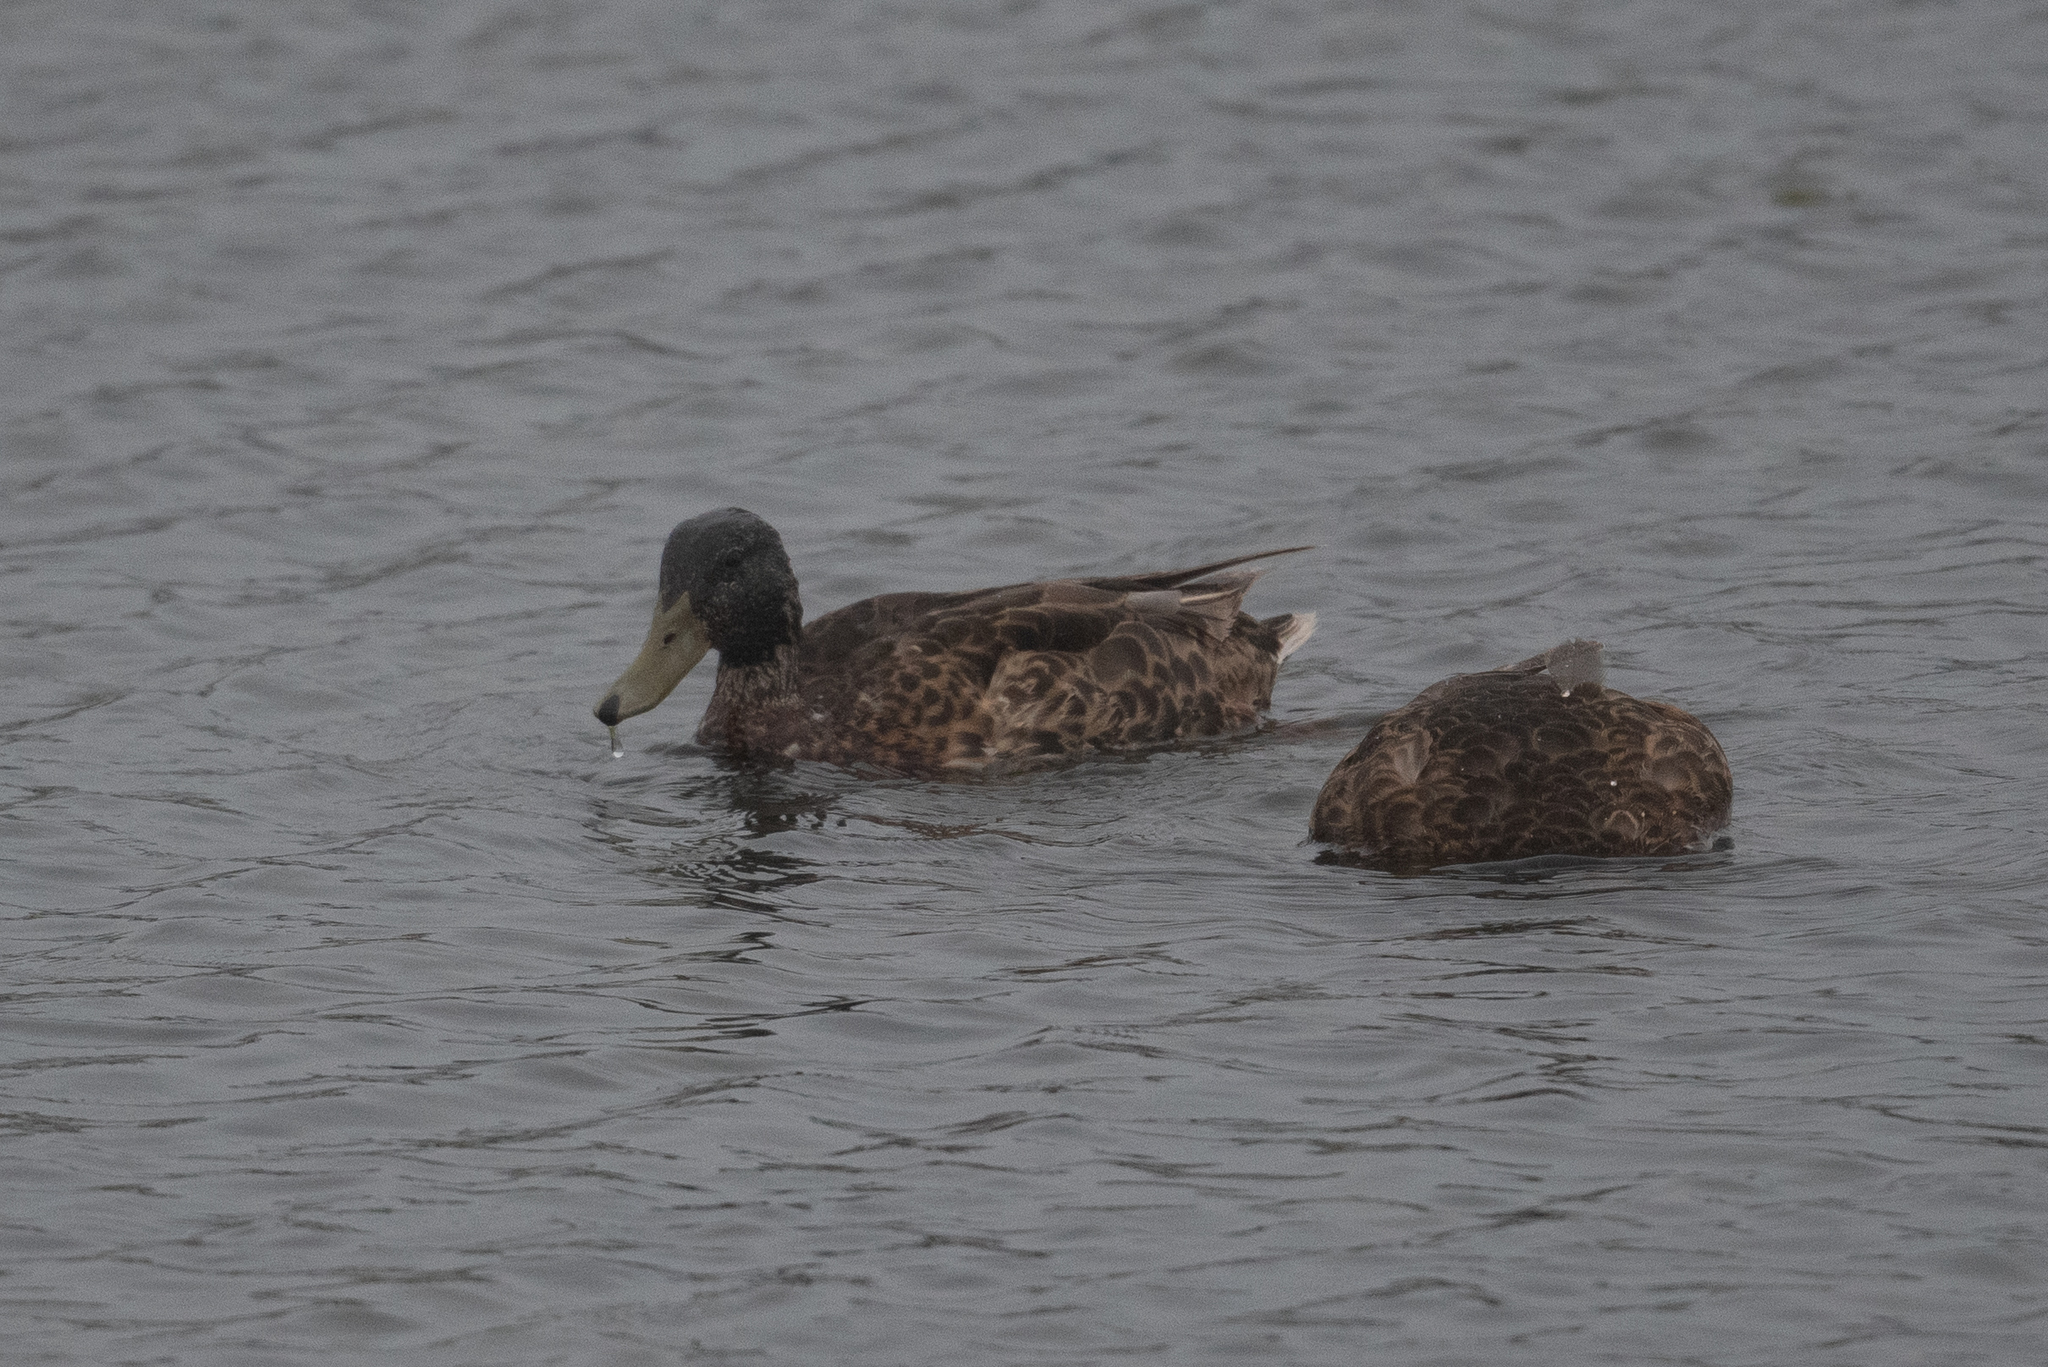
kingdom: Animalia
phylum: Chordata
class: Aves
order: Anseriformes
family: Anatidae
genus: Anas
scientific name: Anas platyrhynchos
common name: Mallard
